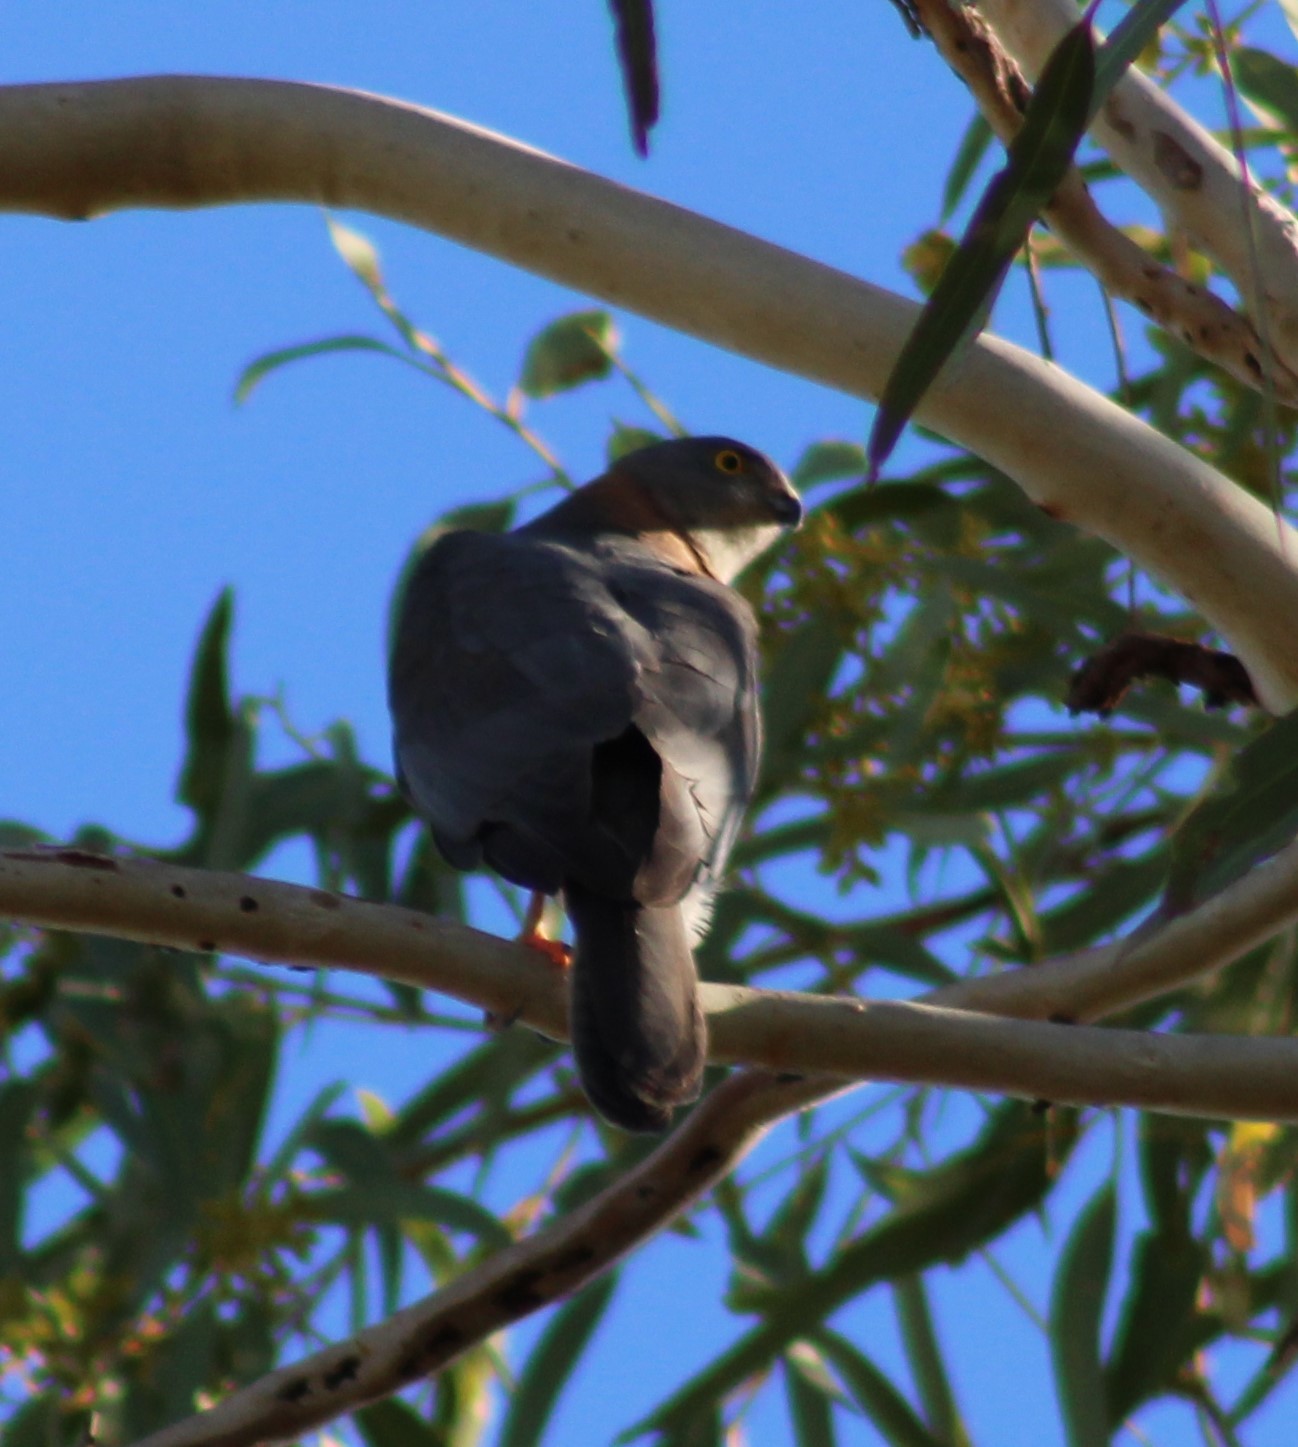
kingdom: Animalia
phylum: Chordata
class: Aves
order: Accipitriformes
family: Accipitridae
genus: Accipiter
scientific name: Accipiter fasciatus
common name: Brown goshawk
